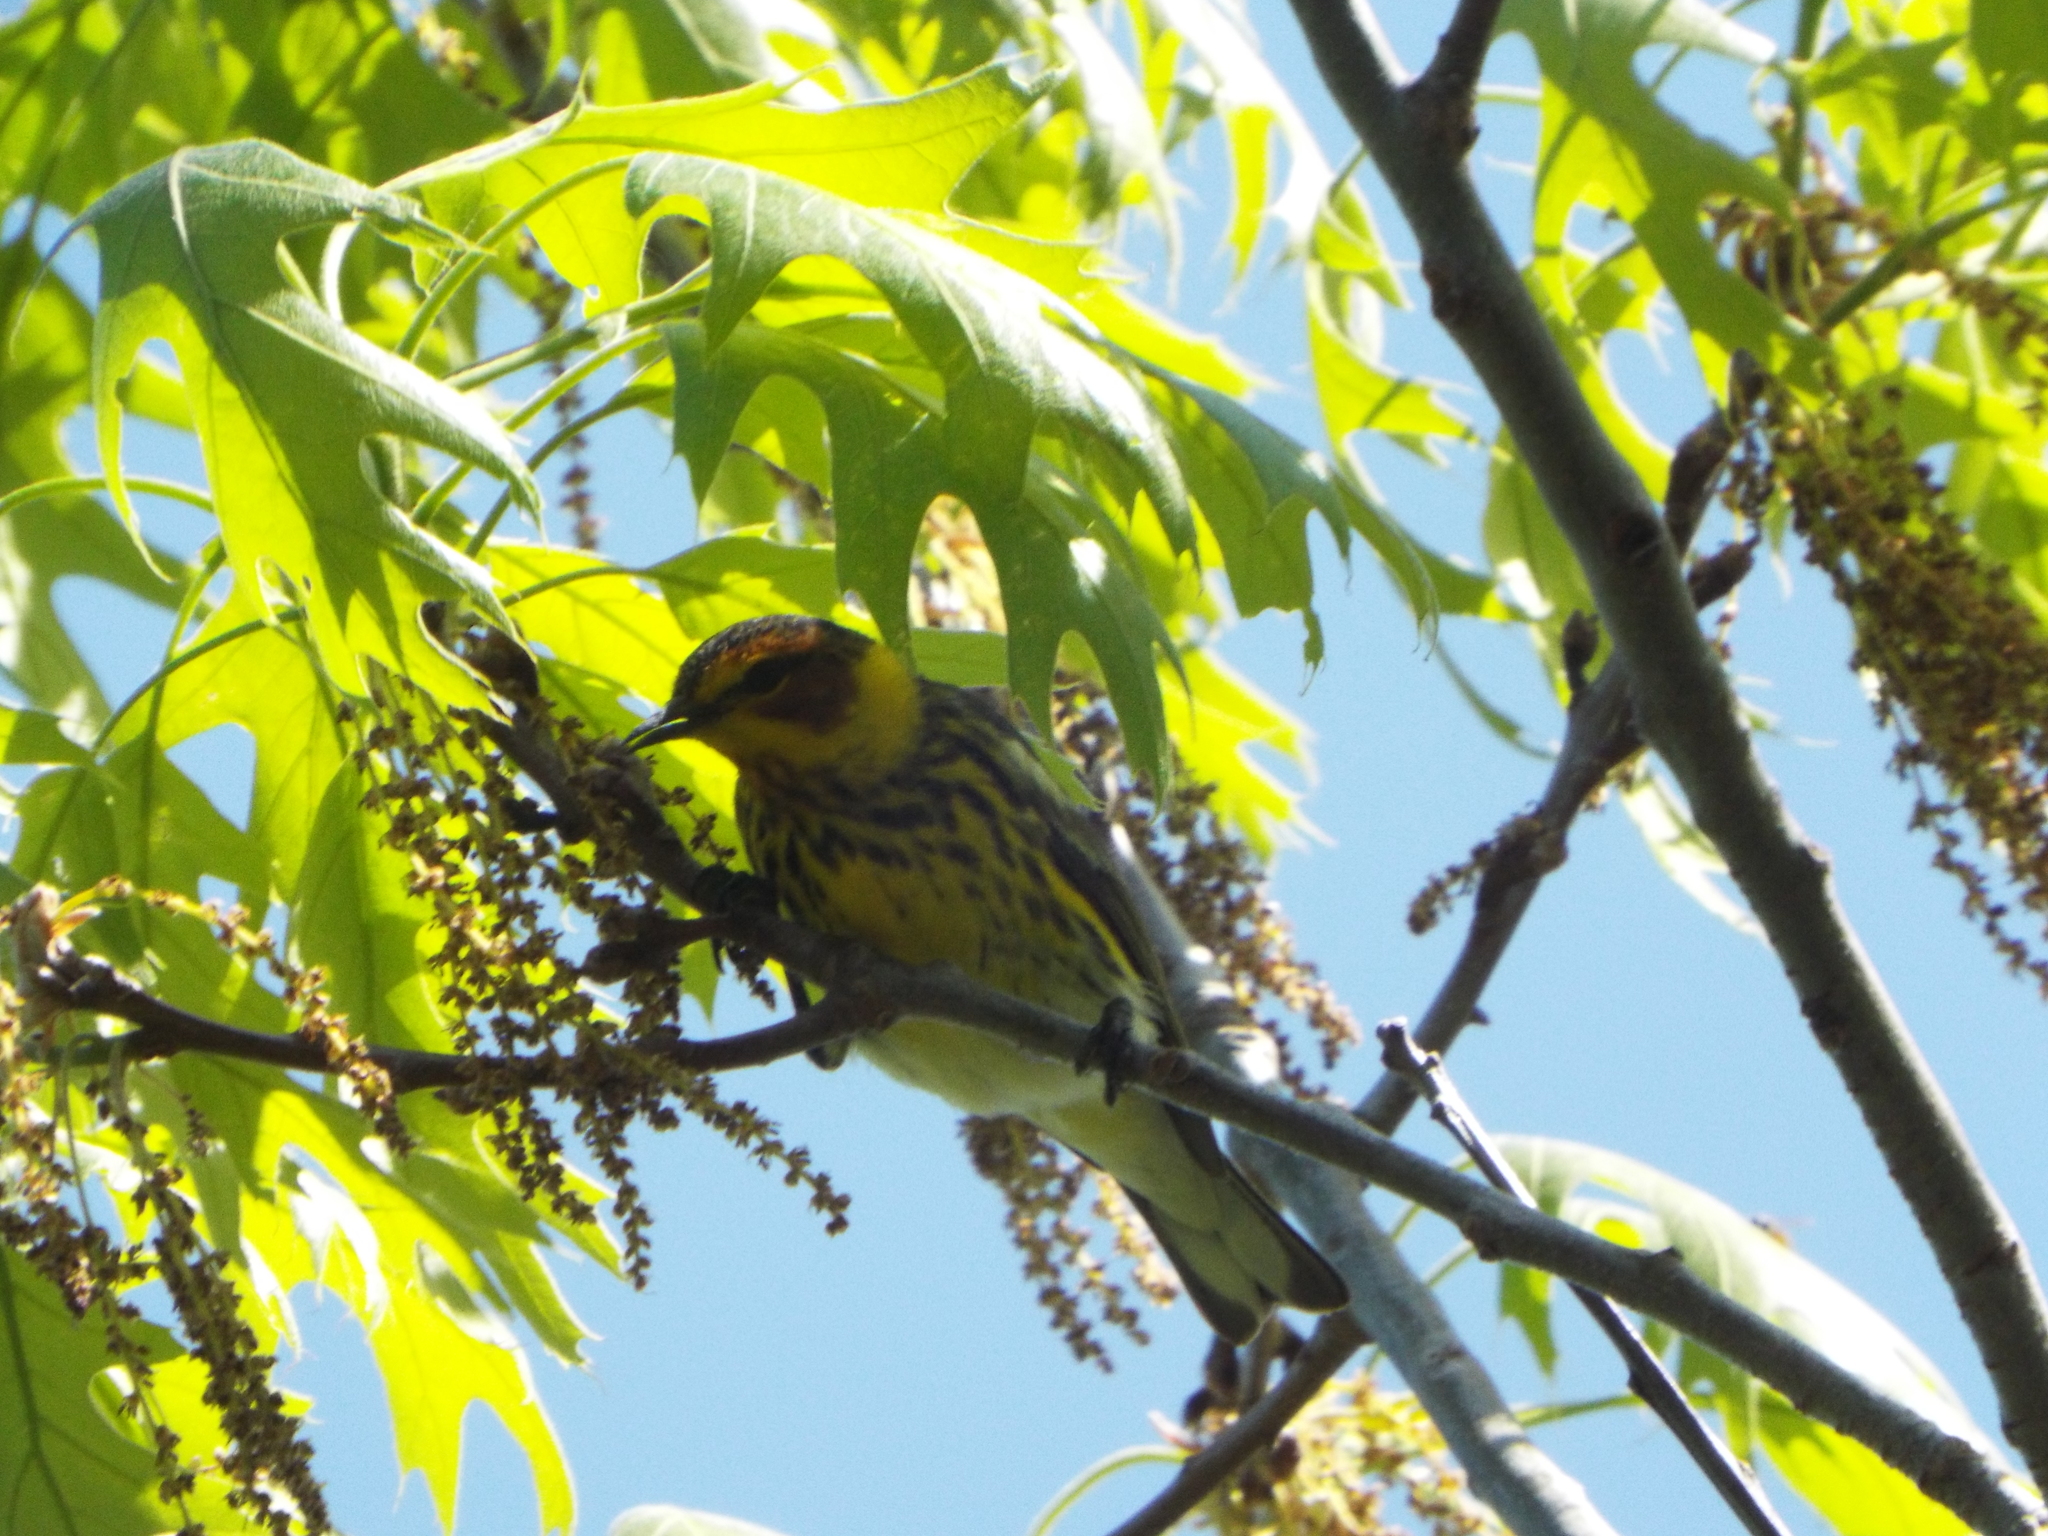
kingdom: Animalia
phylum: Chordata
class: Aves
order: Passeriformes
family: Parulidae
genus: Setophaga
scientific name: Setophaga tigrina
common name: Cape may warbler
